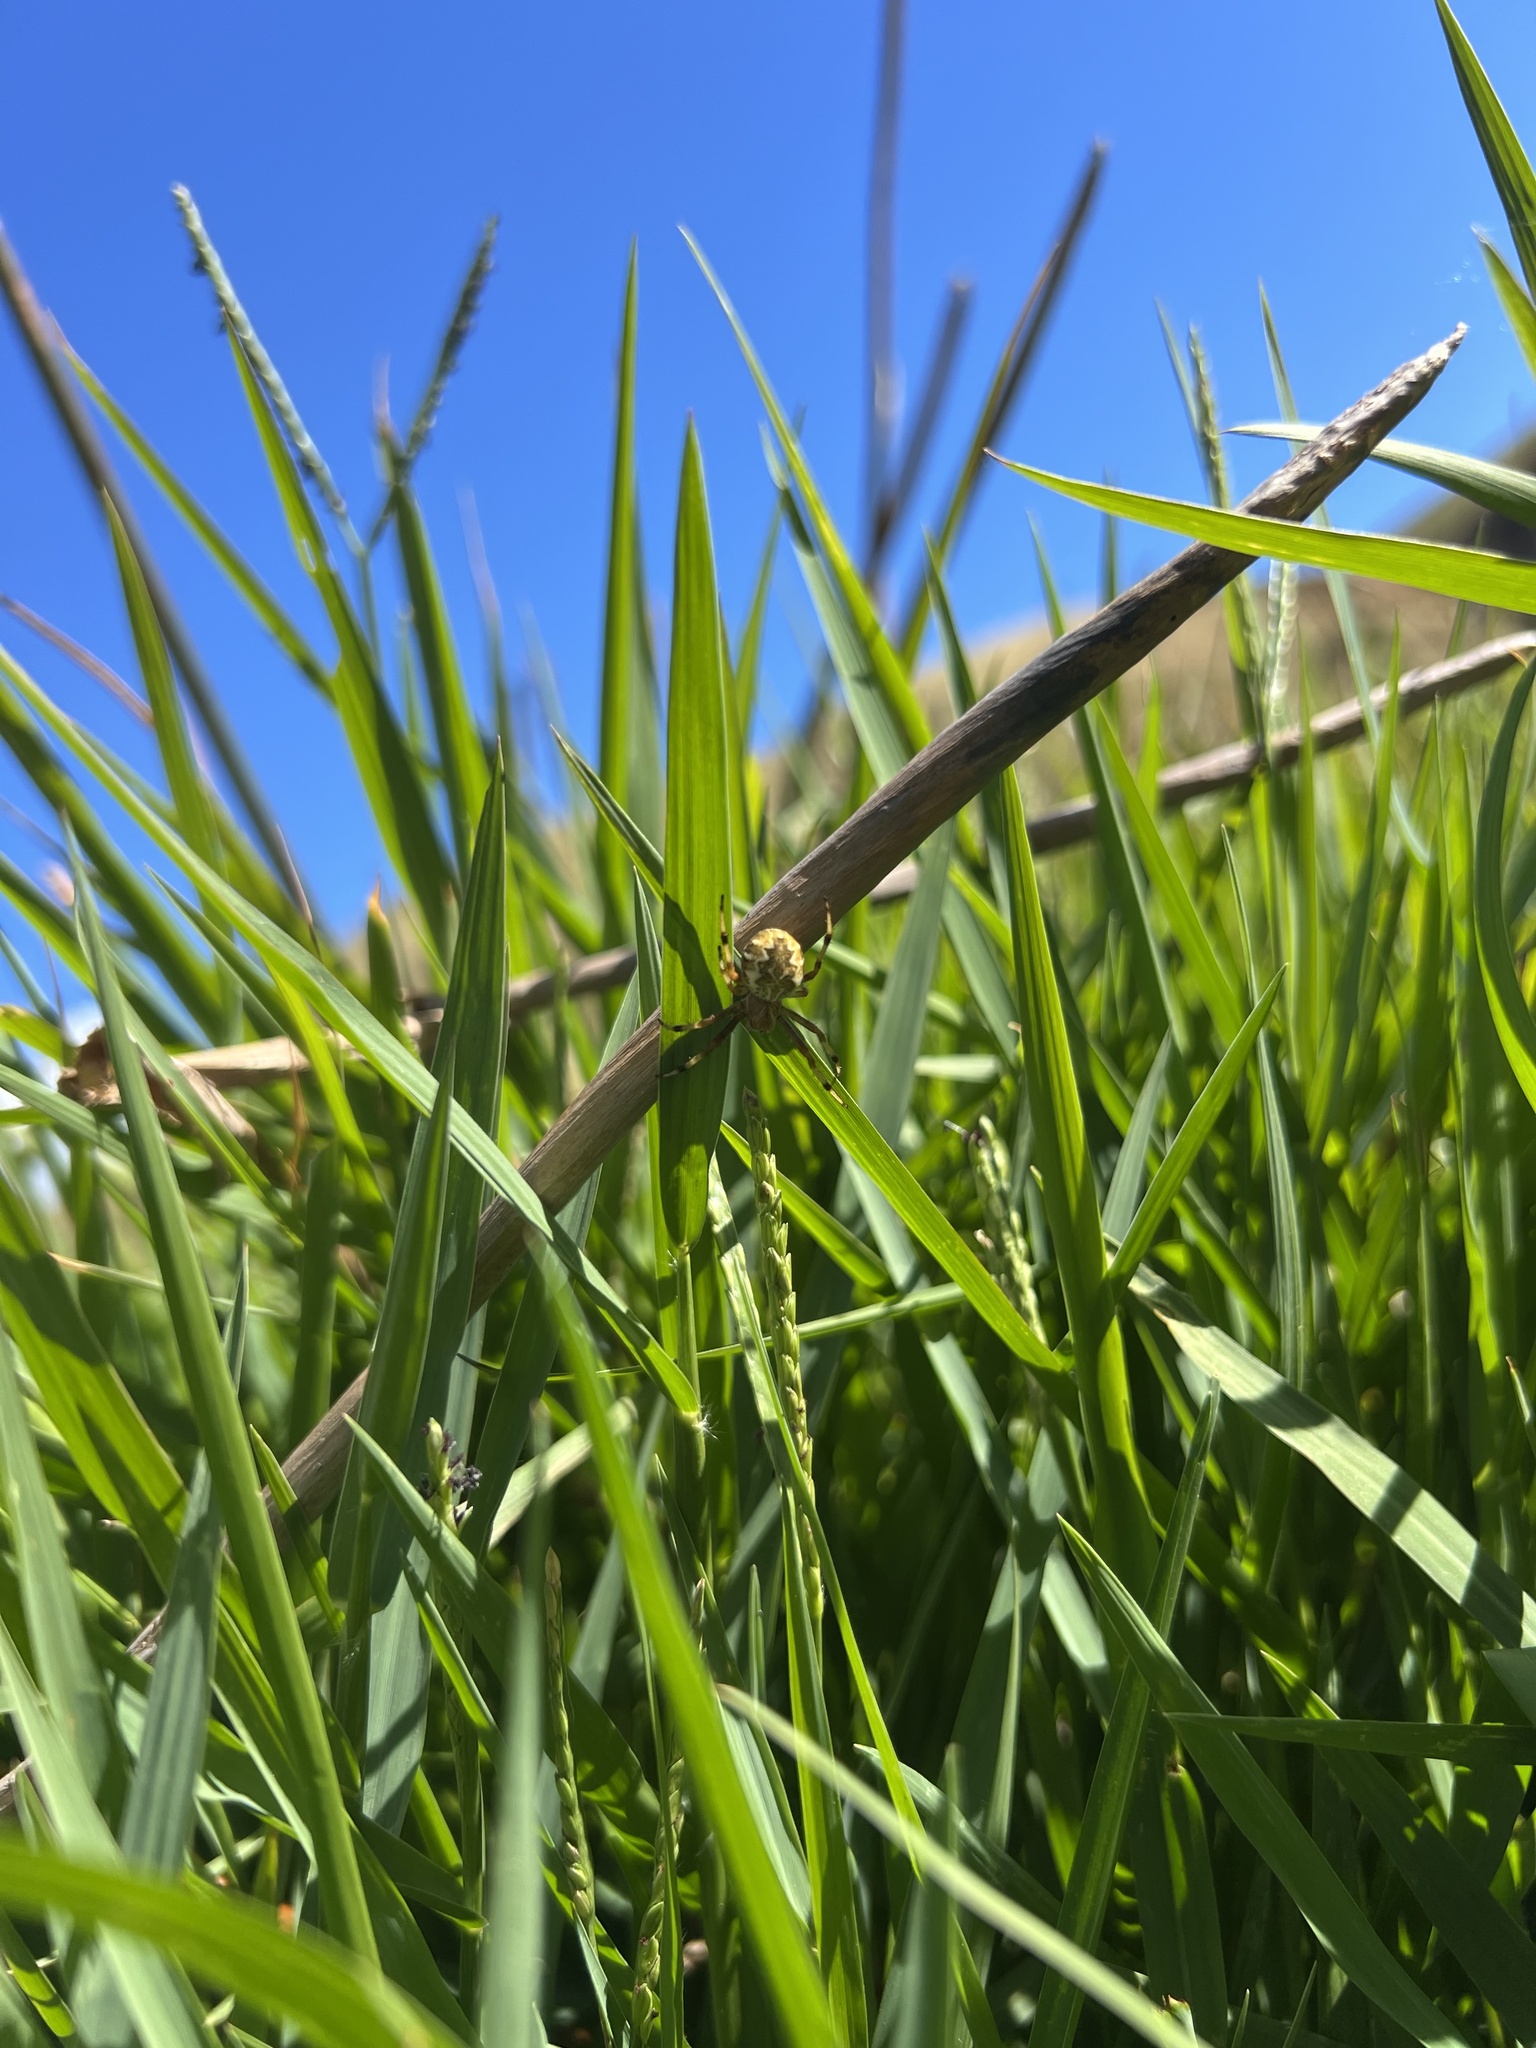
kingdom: Animalia
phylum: Arthropoda
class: Arachnida
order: Araneae
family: Araneidae
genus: Salsa
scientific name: Salsa fuliginata
